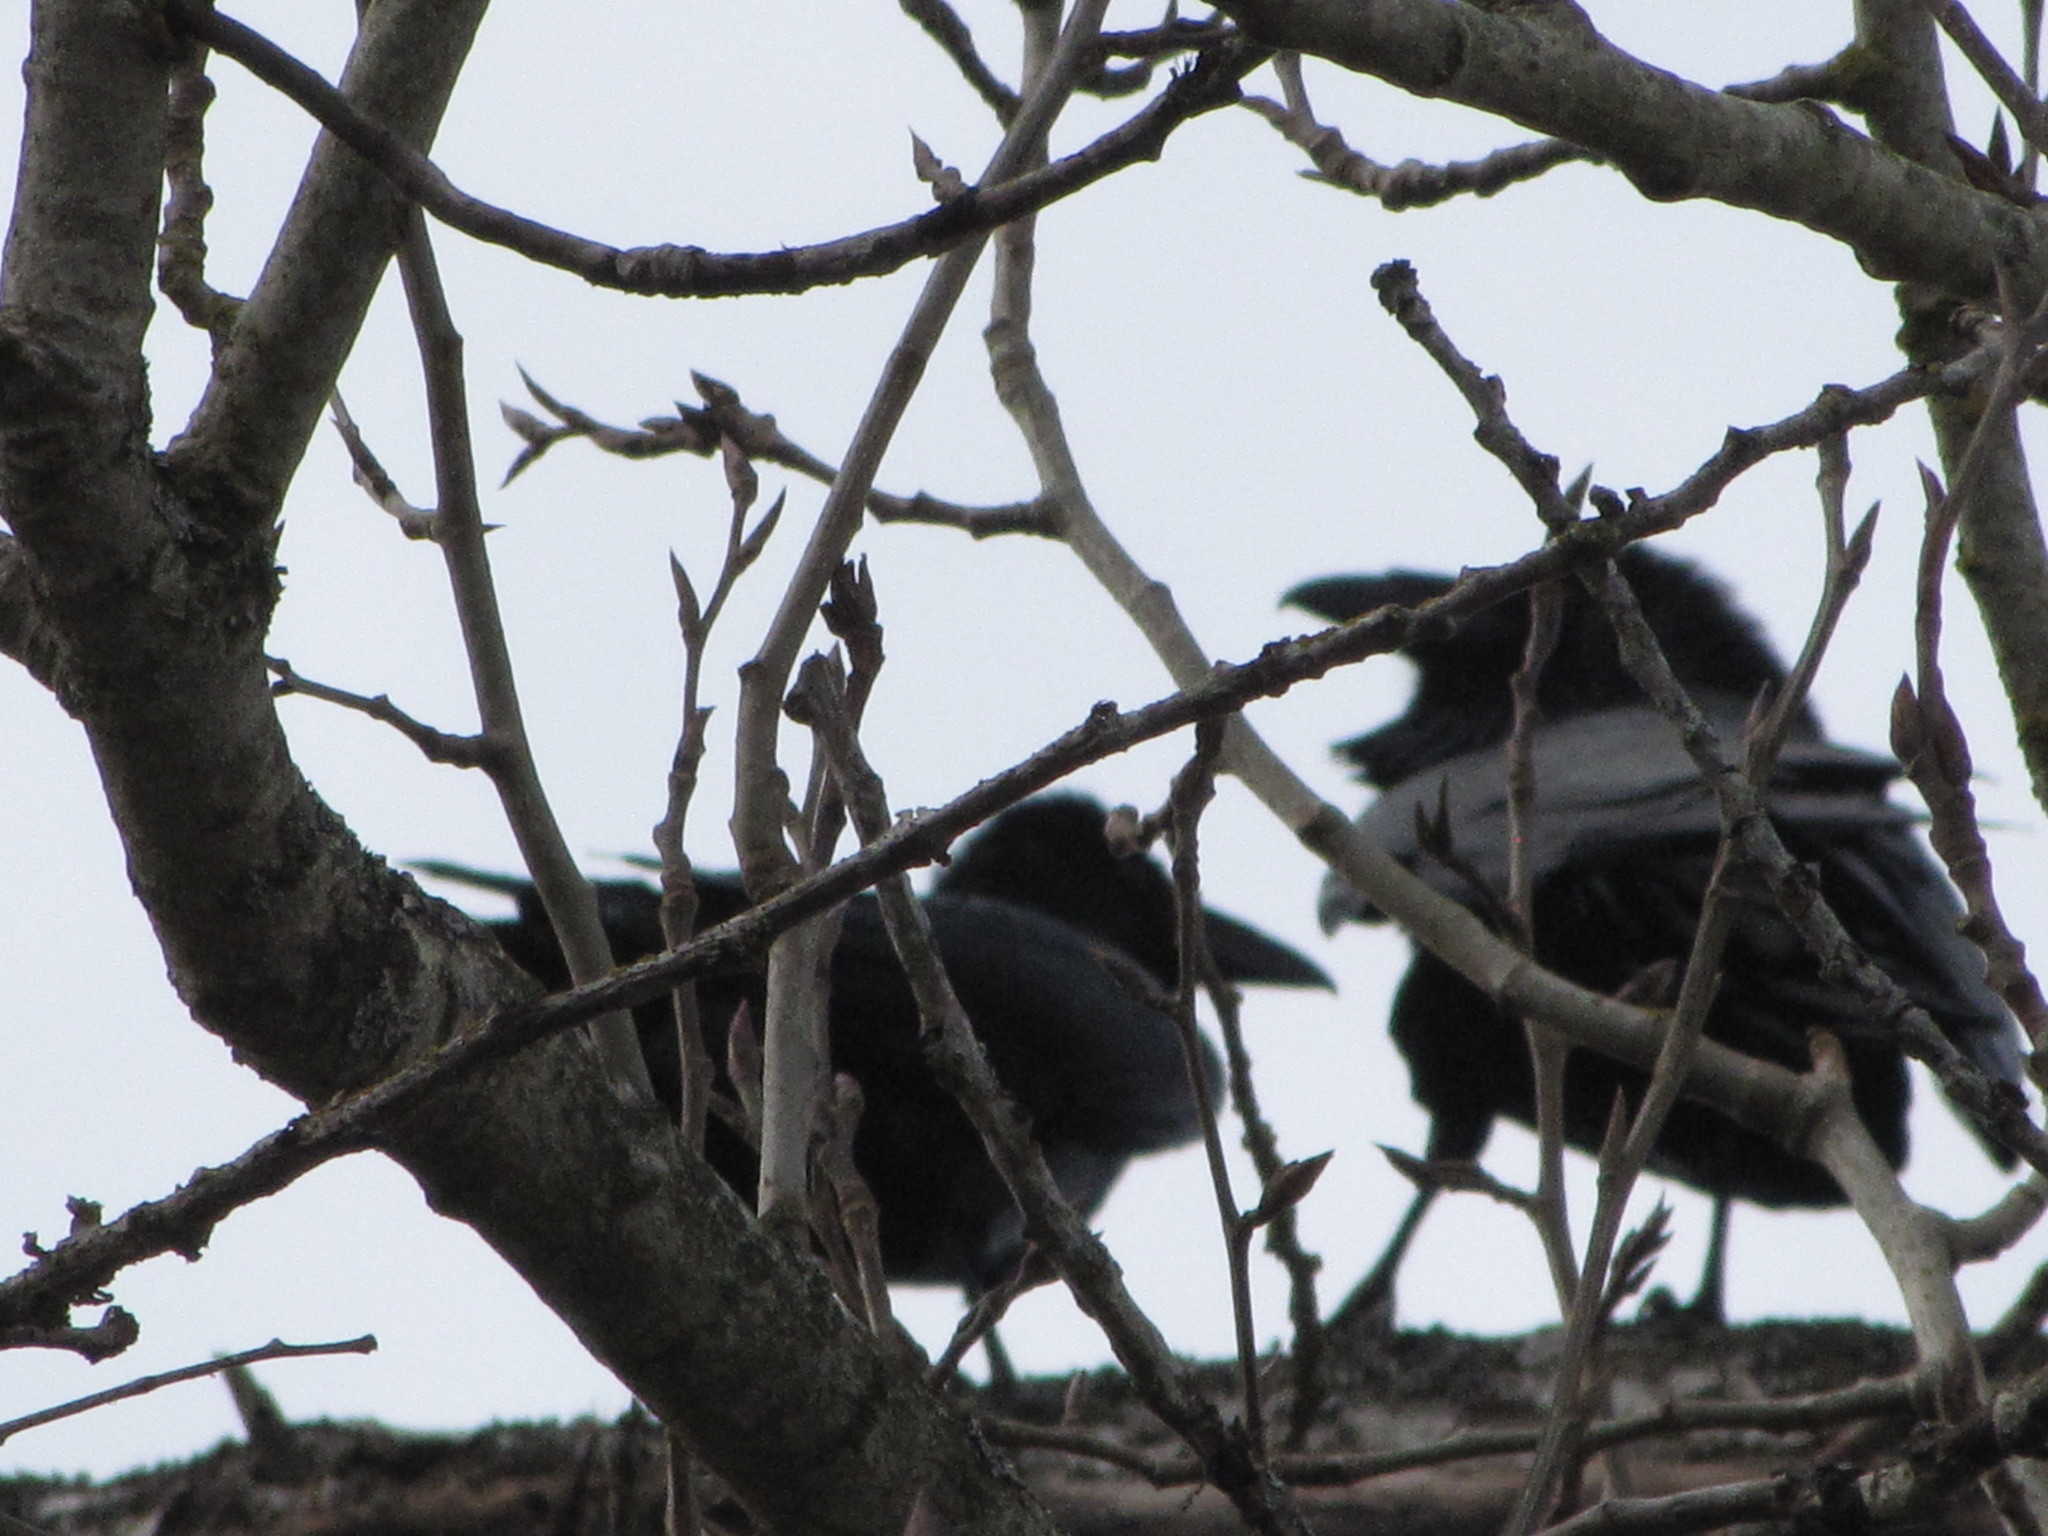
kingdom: Animalia
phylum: Chordata
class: Aves
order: Passeriformes
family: Corvidae
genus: Corvus
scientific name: Corvus corax
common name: Common raven
